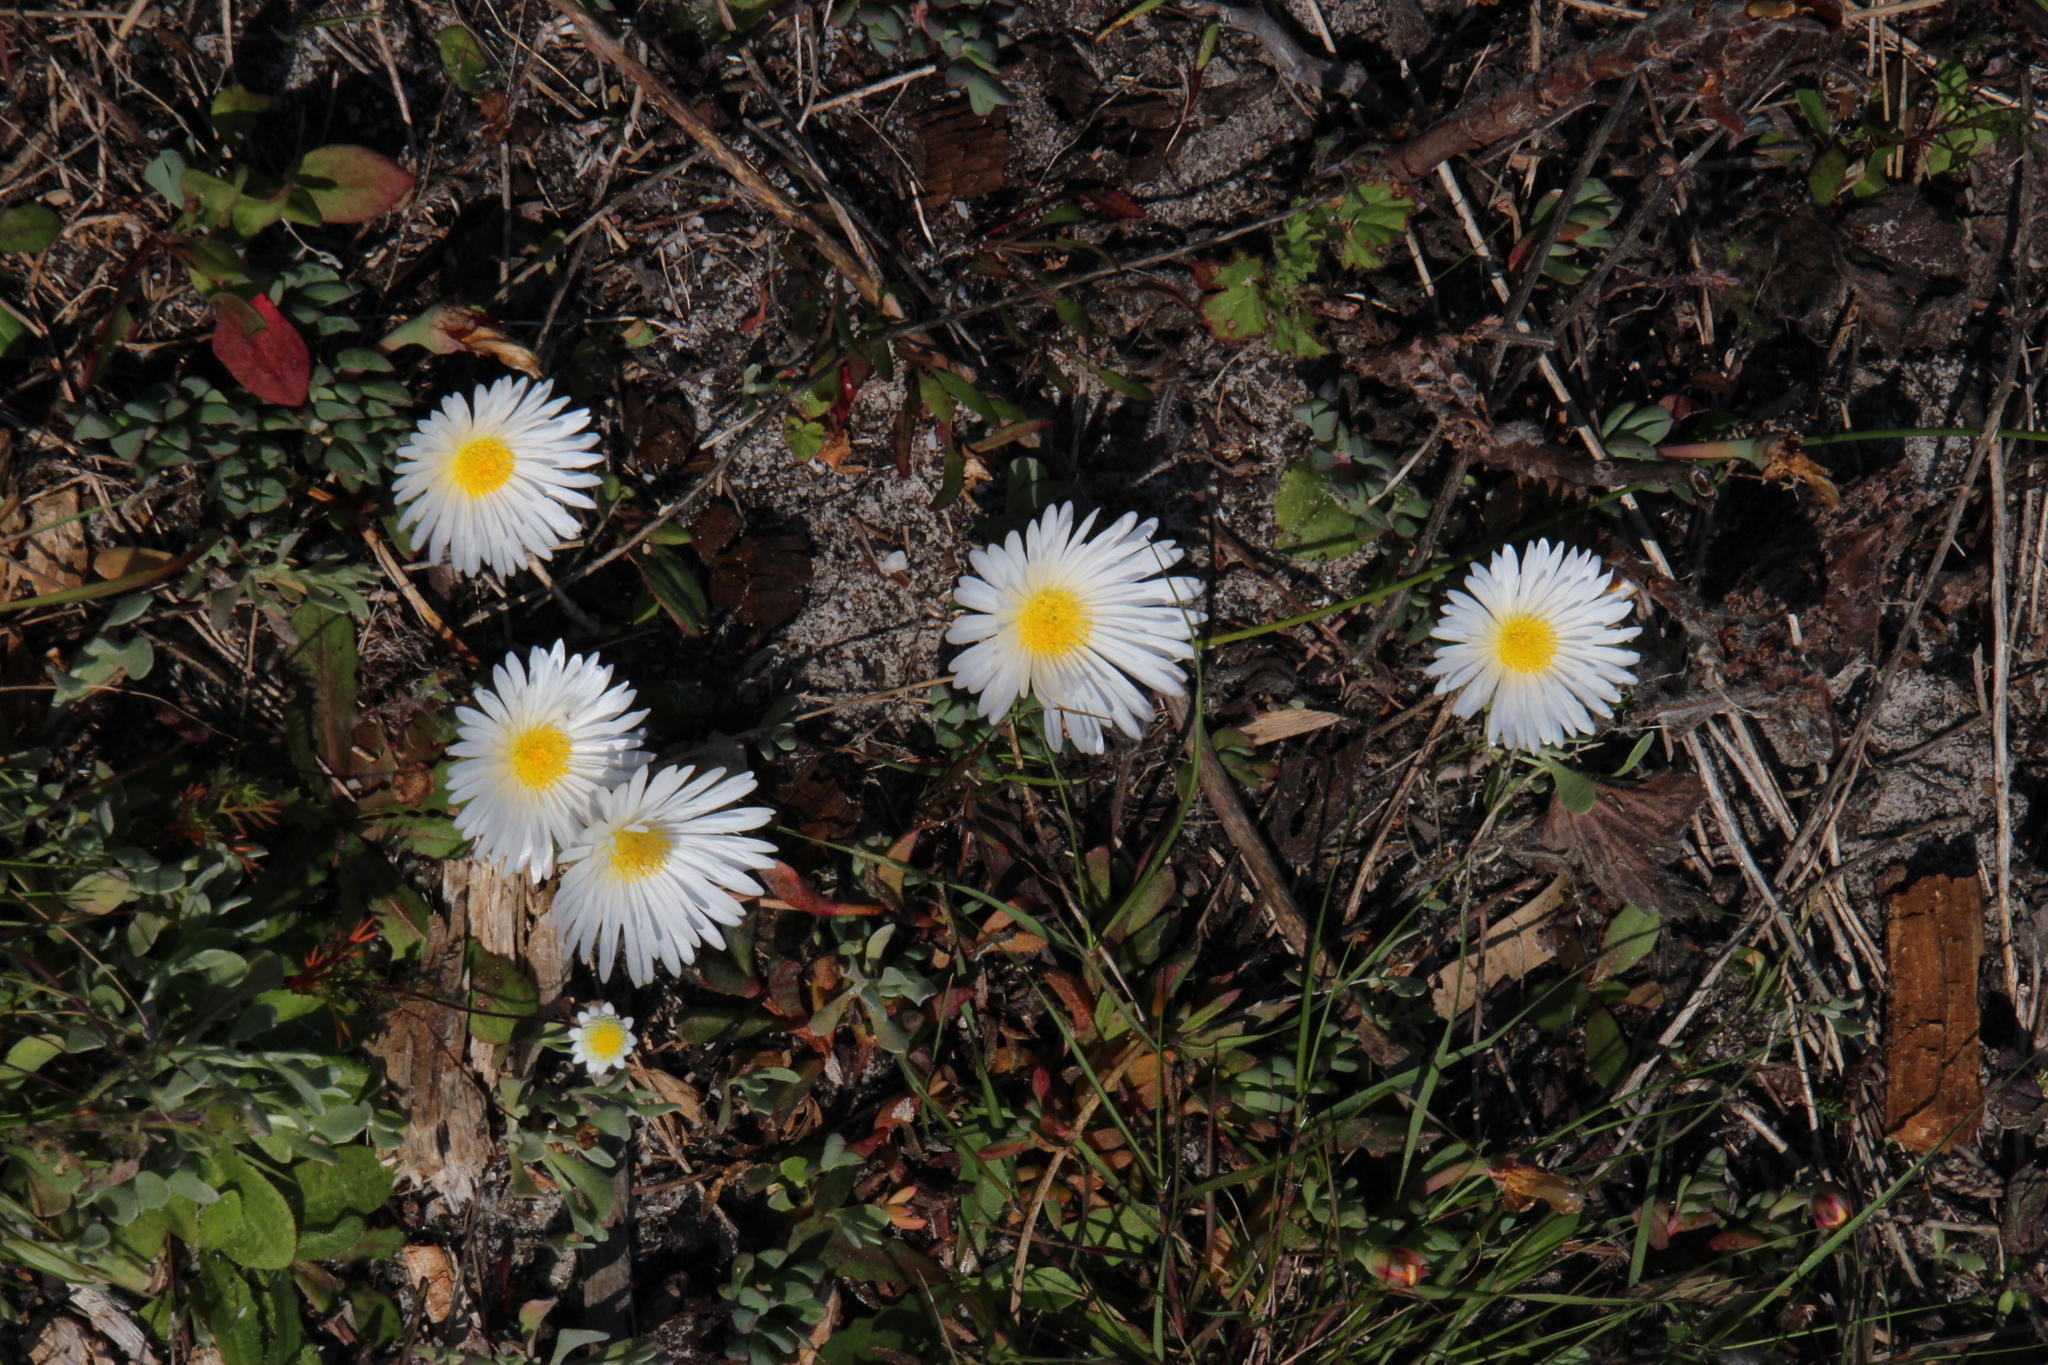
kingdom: Plantae
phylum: Tracheophyta
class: Magnoliopsida
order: Caryophyllales
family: Aizoaceae
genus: Lampranthus
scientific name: Lampranthus reptans
